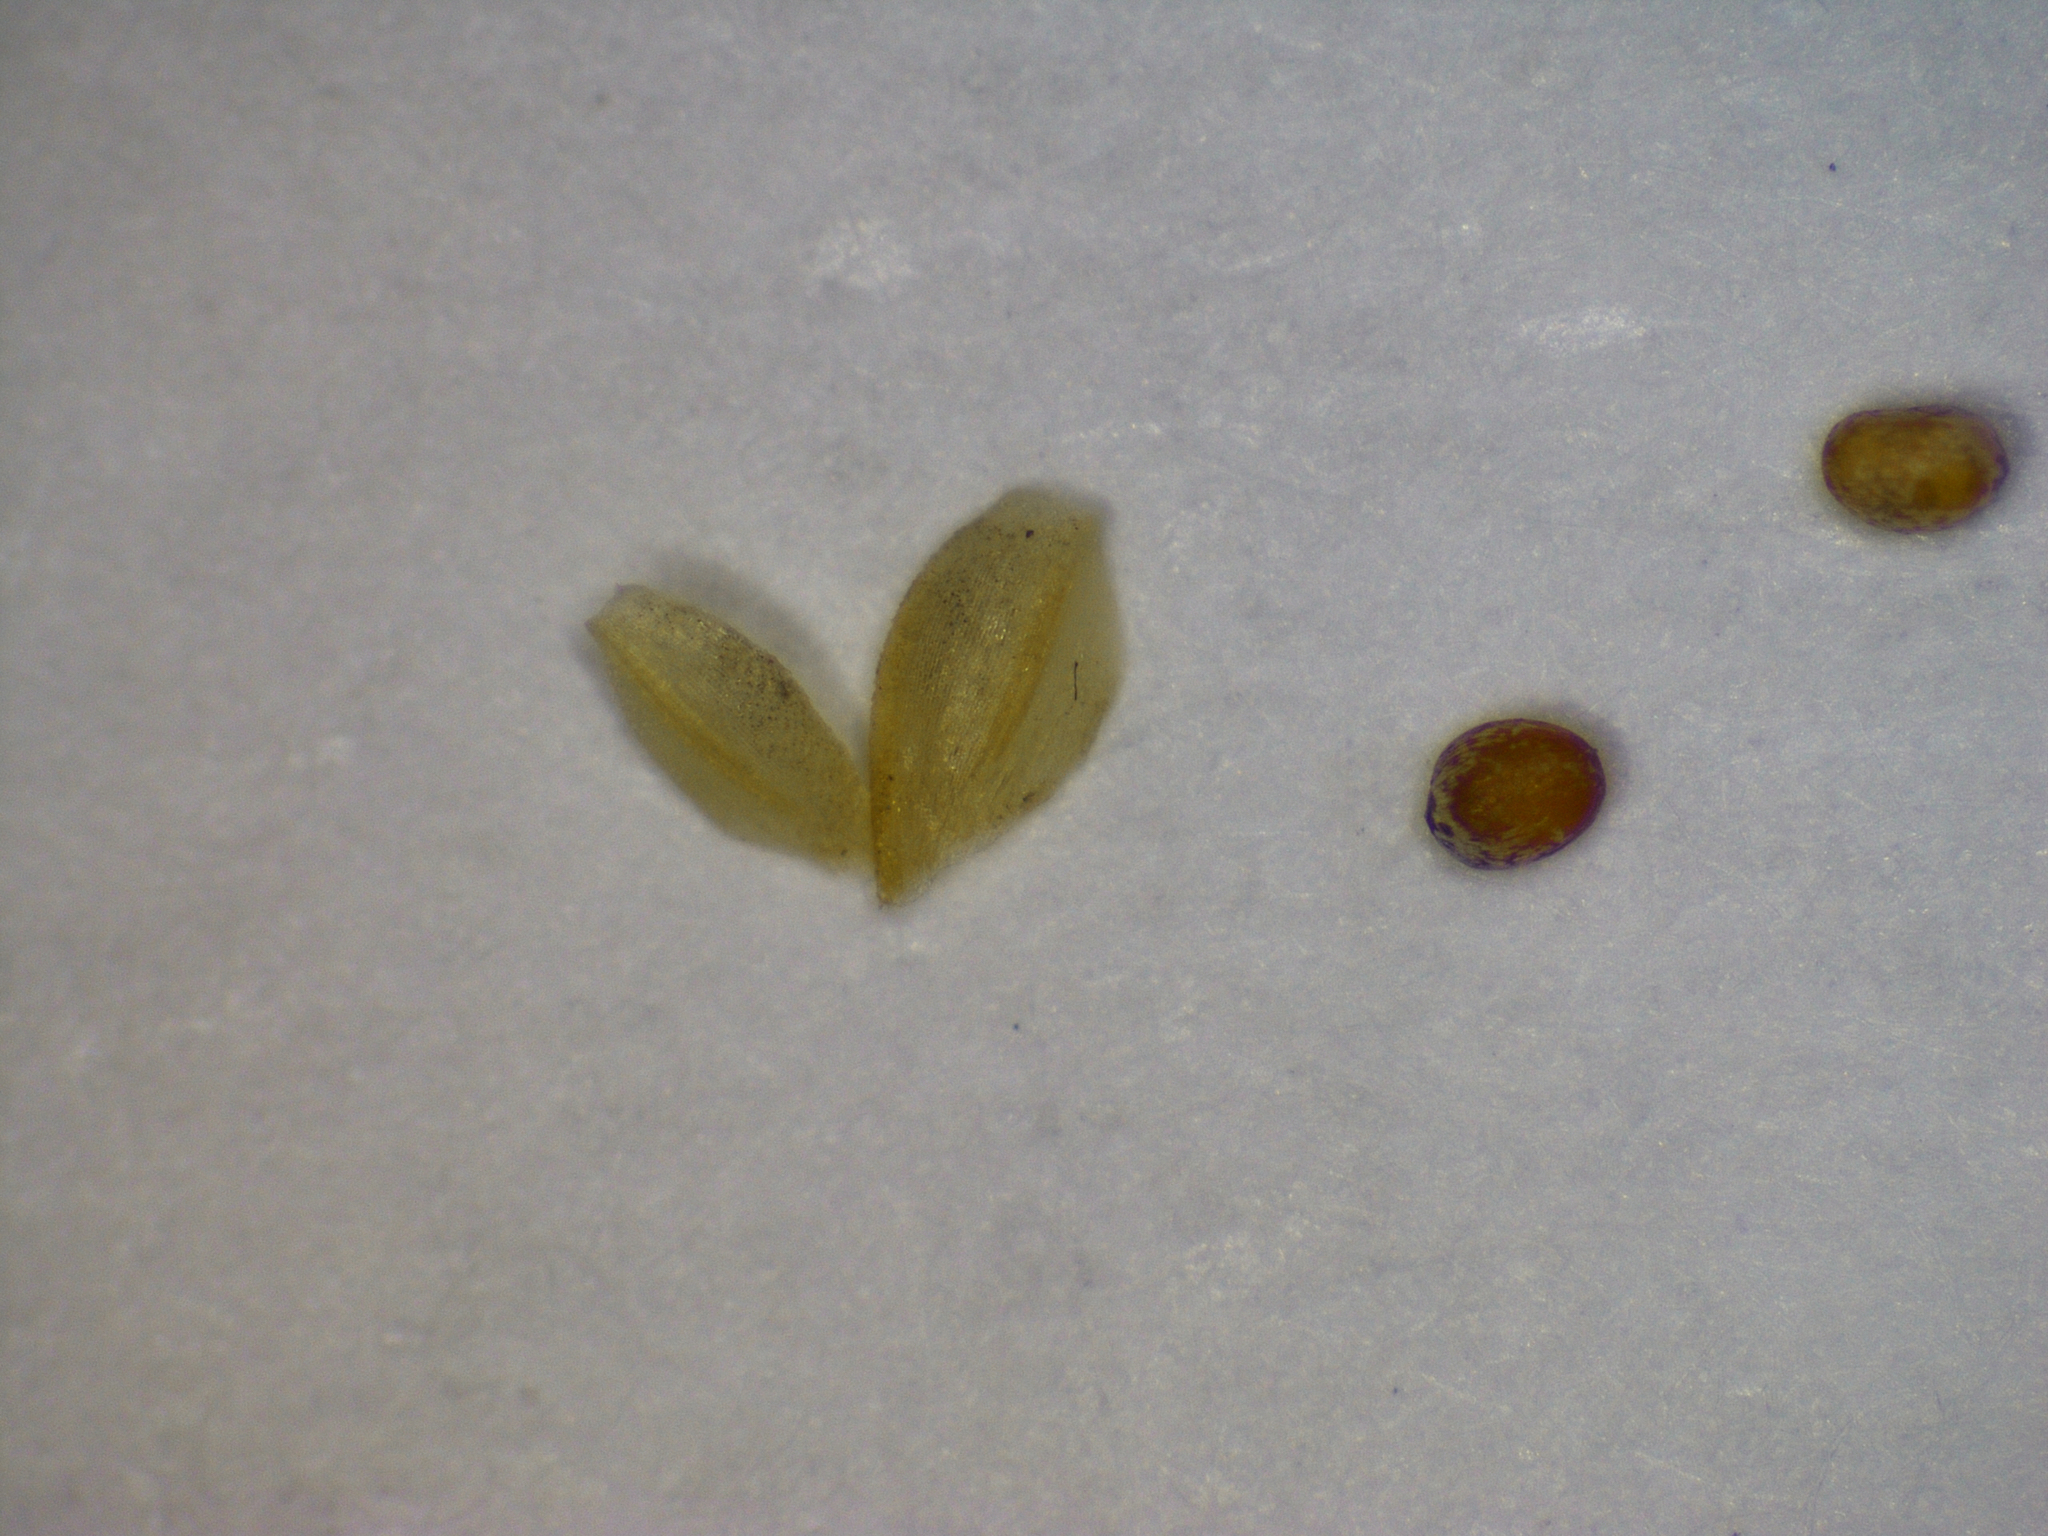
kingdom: Plantae
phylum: Tracheophyta
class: Liliopsida
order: Poales
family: Poaceae
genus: Eragrostis
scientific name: Eragrostis potamophila
